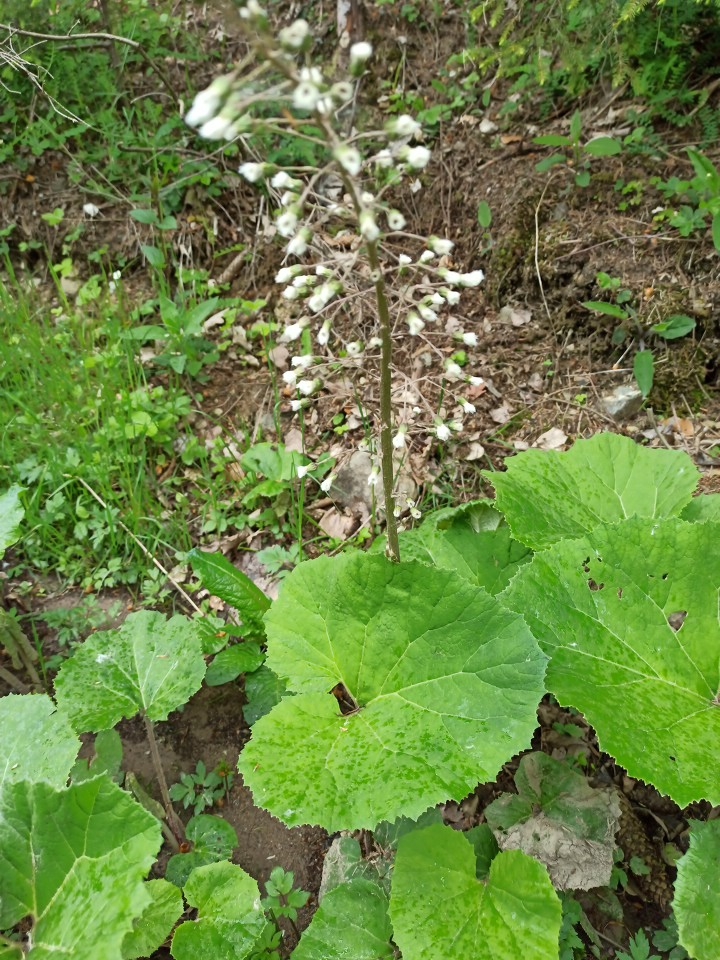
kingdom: Plantae
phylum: Tracheophyta
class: Magnoliopsida
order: Asterales
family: Asteraceae
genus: Petasites
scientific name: Petasites hybridus
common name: Butterbur
